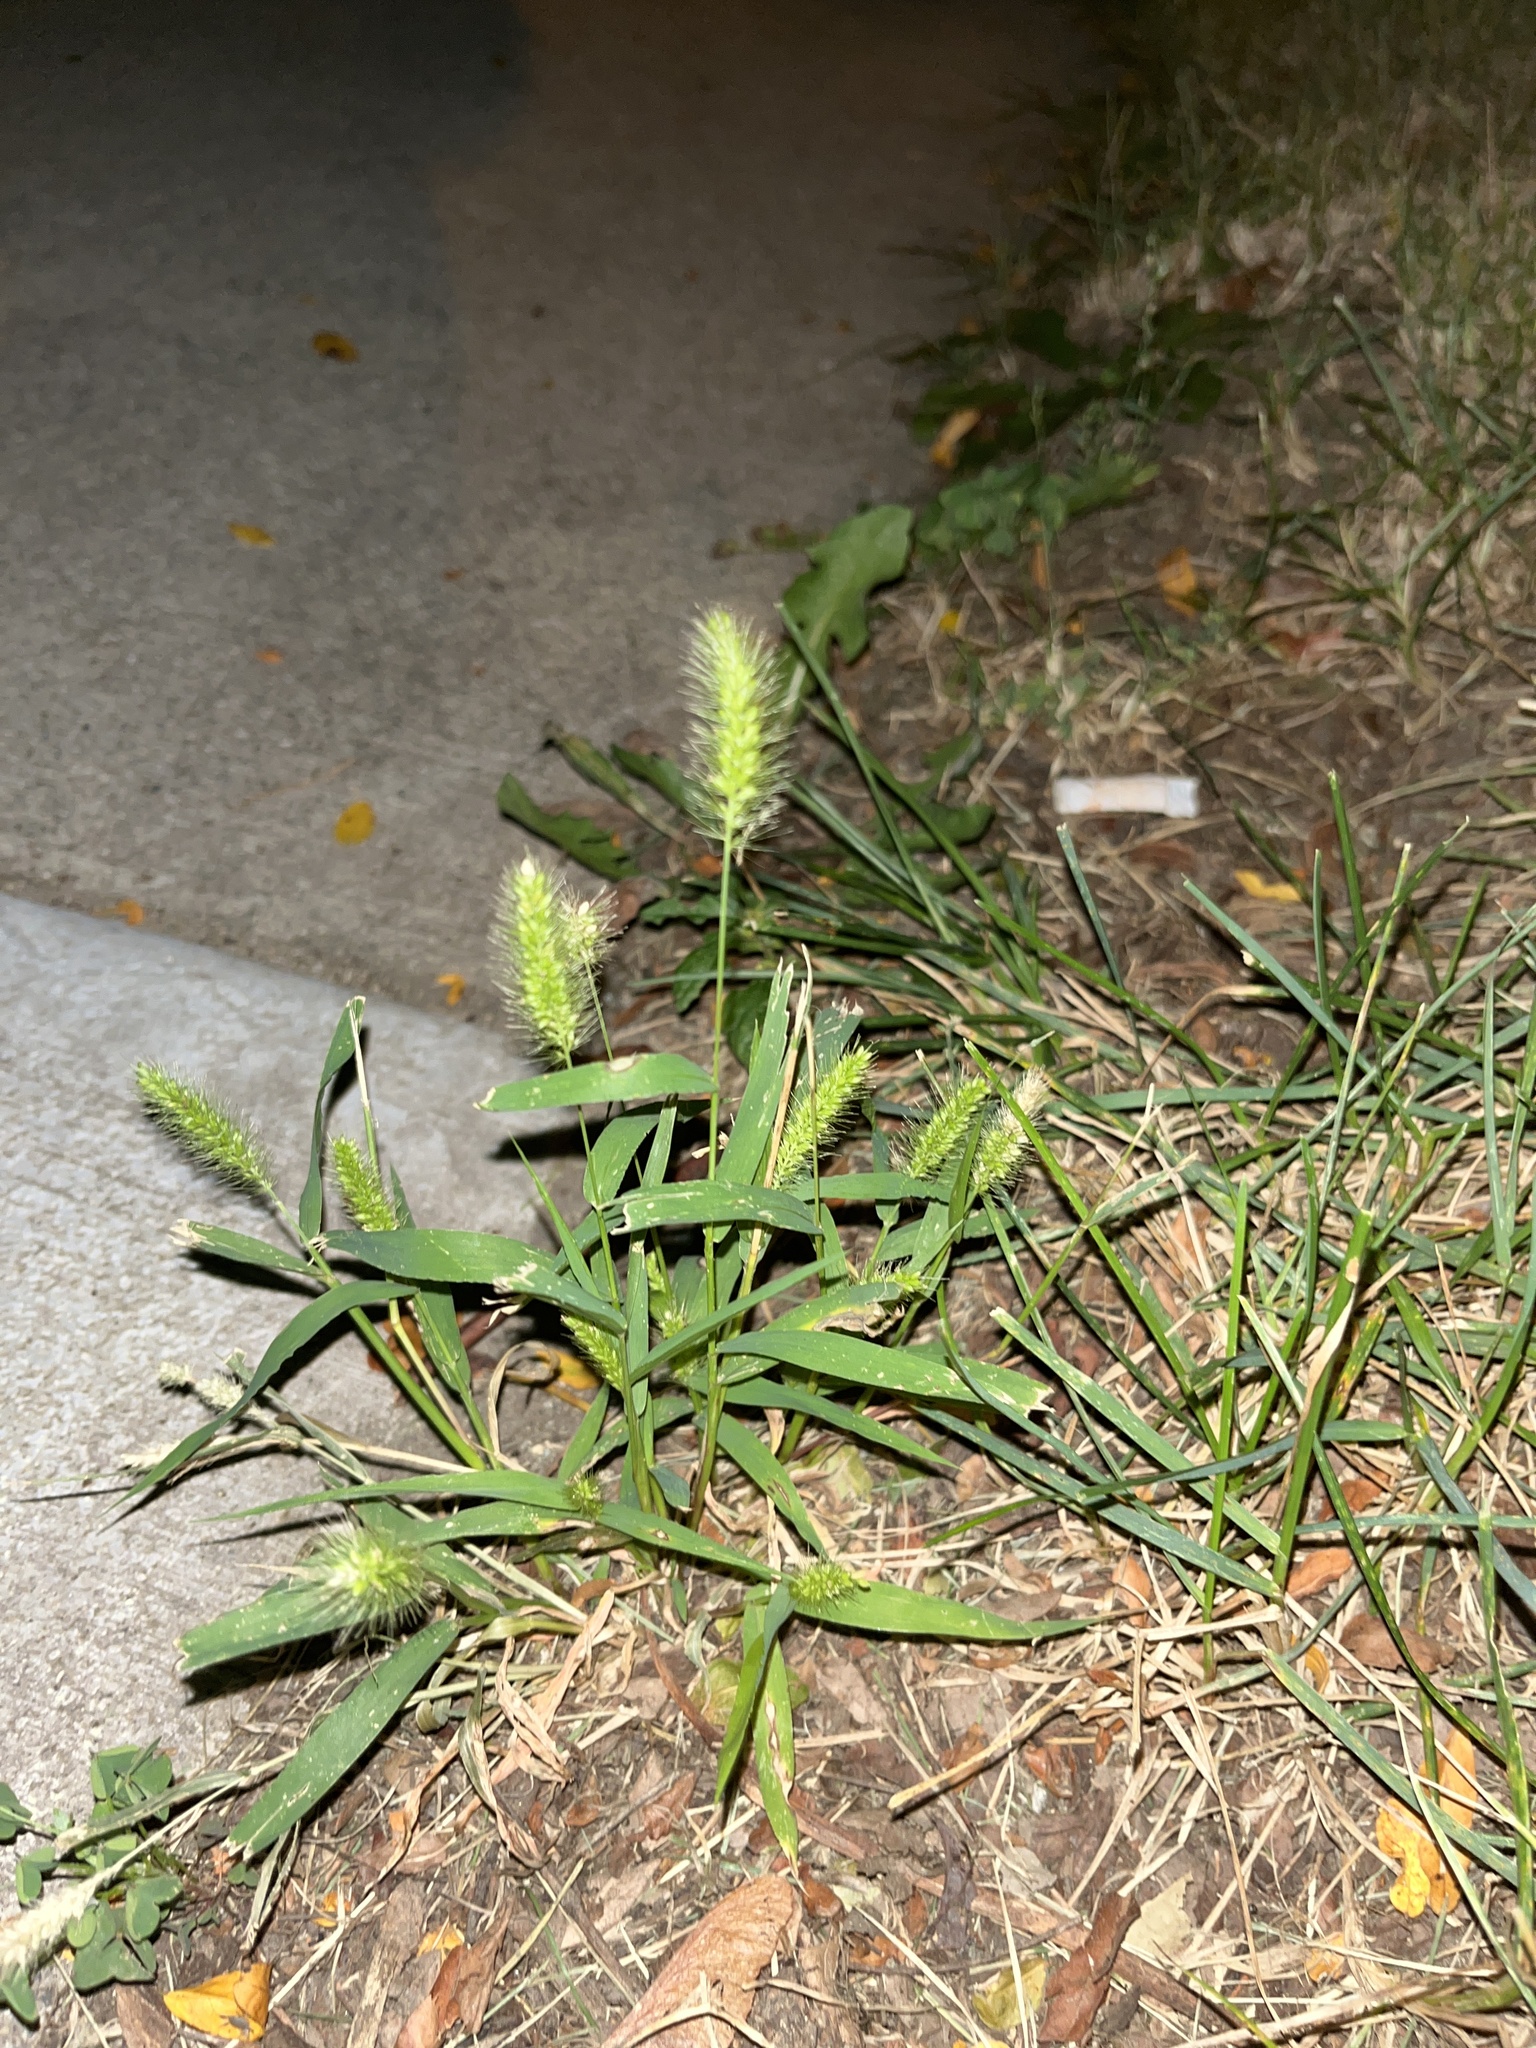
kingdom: Plantae
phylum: Tracheophyta
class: Liliopsida
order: Poales
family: Poaceae
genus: Setaria
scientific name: Setaria viridis
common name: Green bristlegrass
